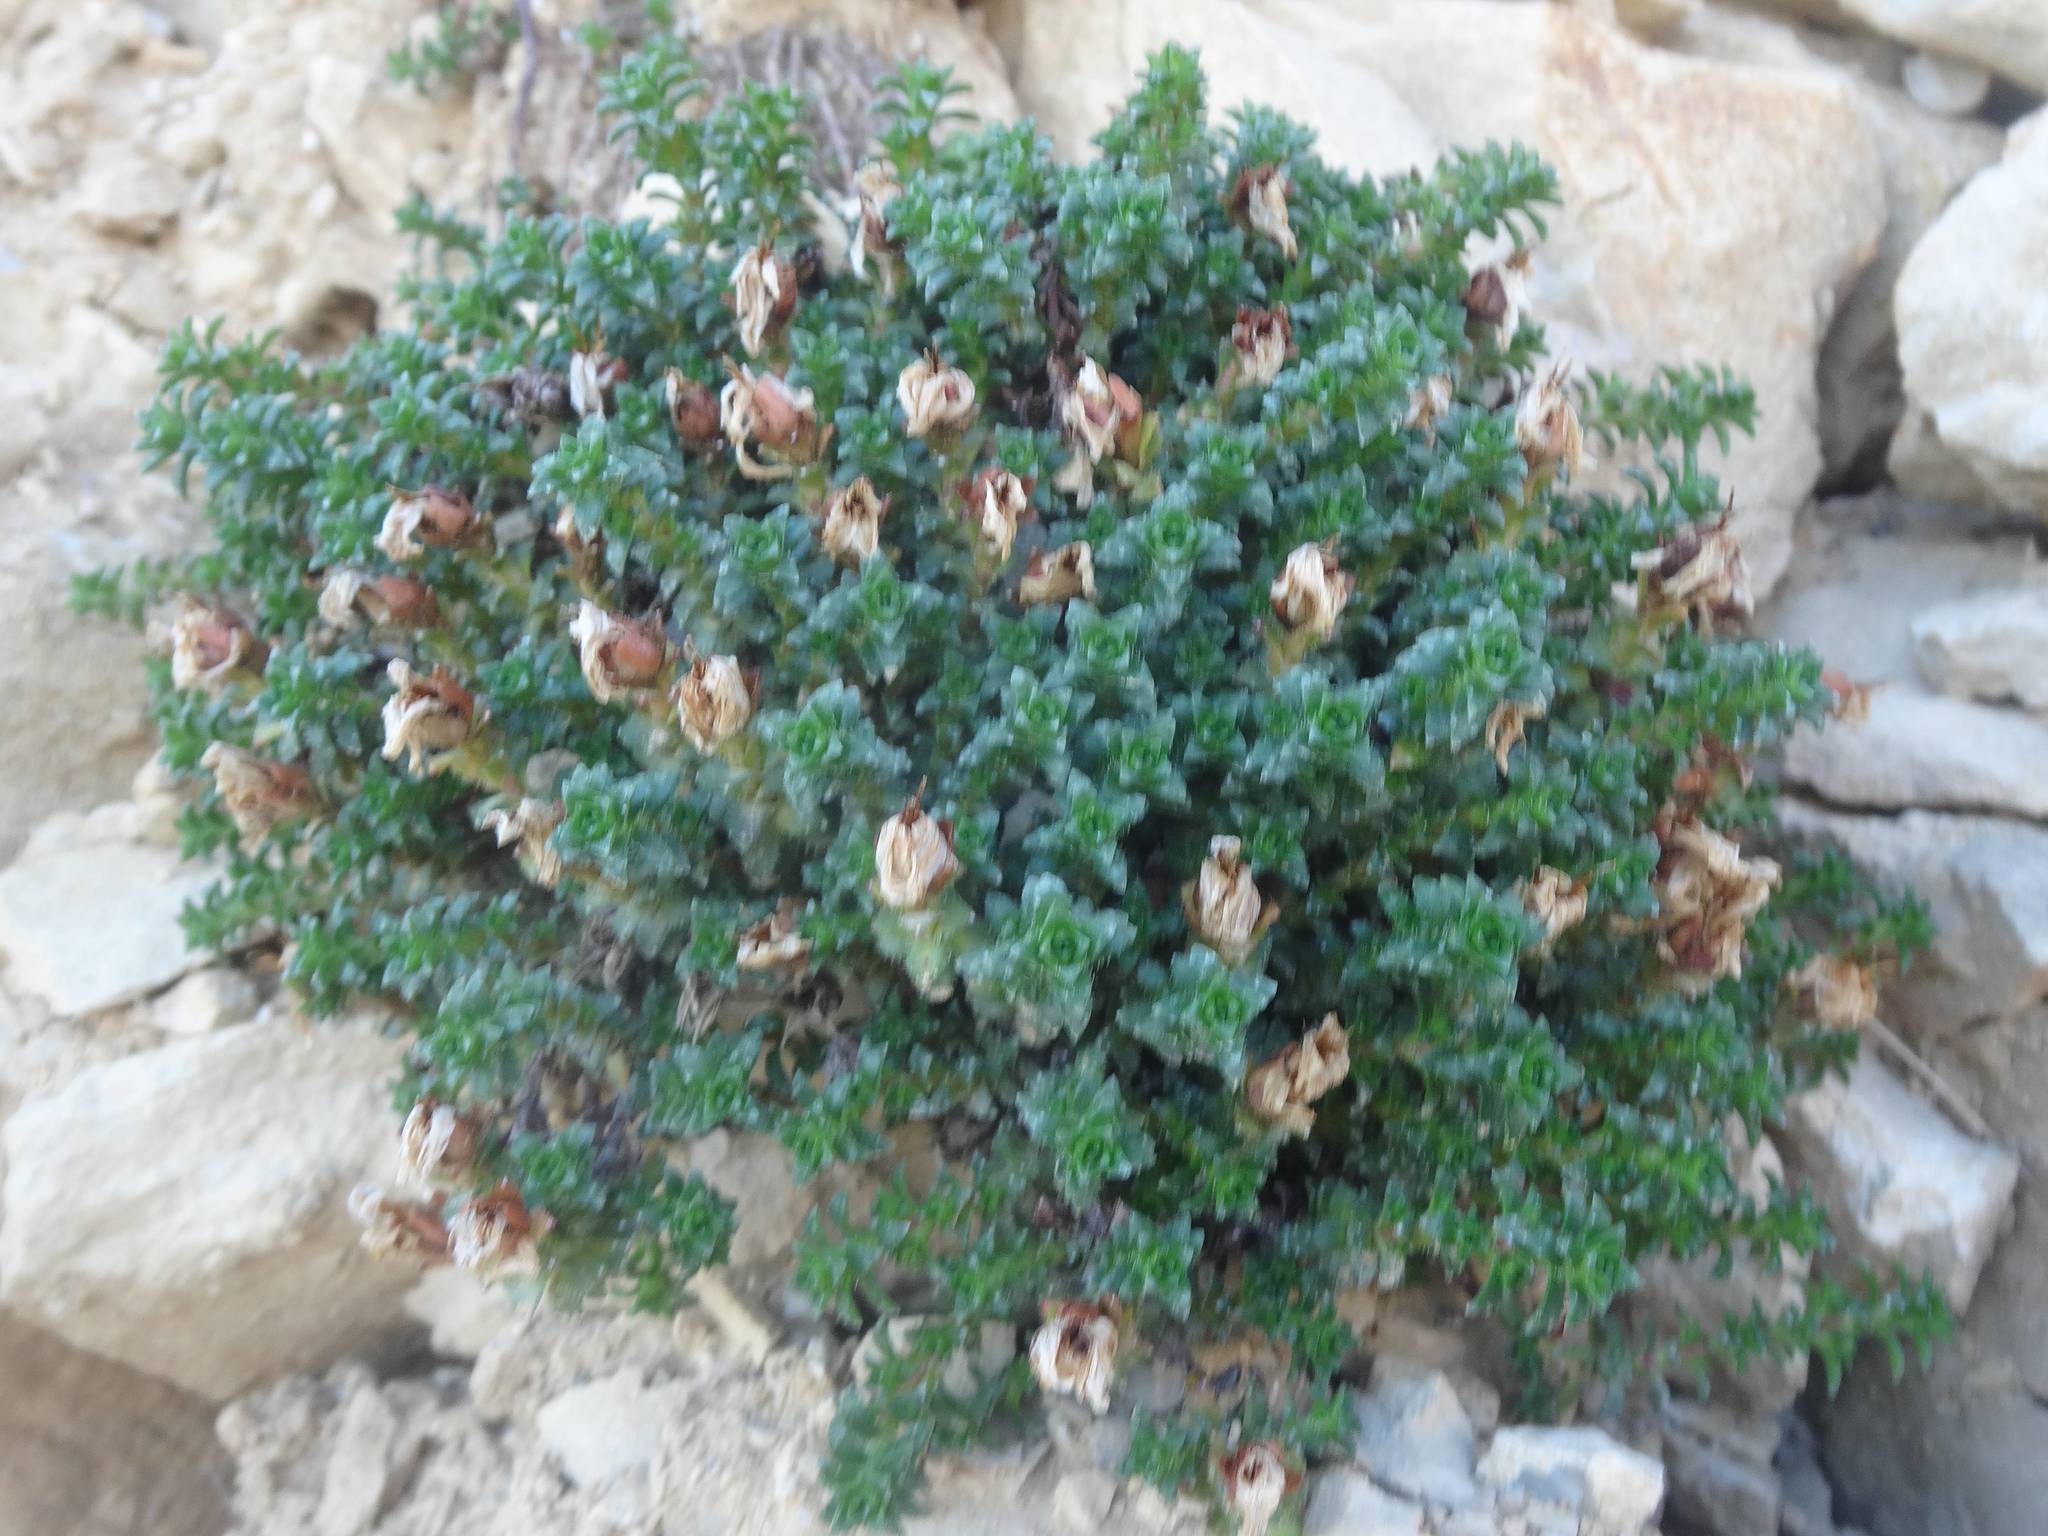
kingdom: Plantae
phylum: Tracheophyta
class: Magnoliopsida
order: Saxifragales
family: Saxifragaceae
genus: Saxifraga
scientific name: Saxifraga oppositifolia
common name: Purple saxifrage
